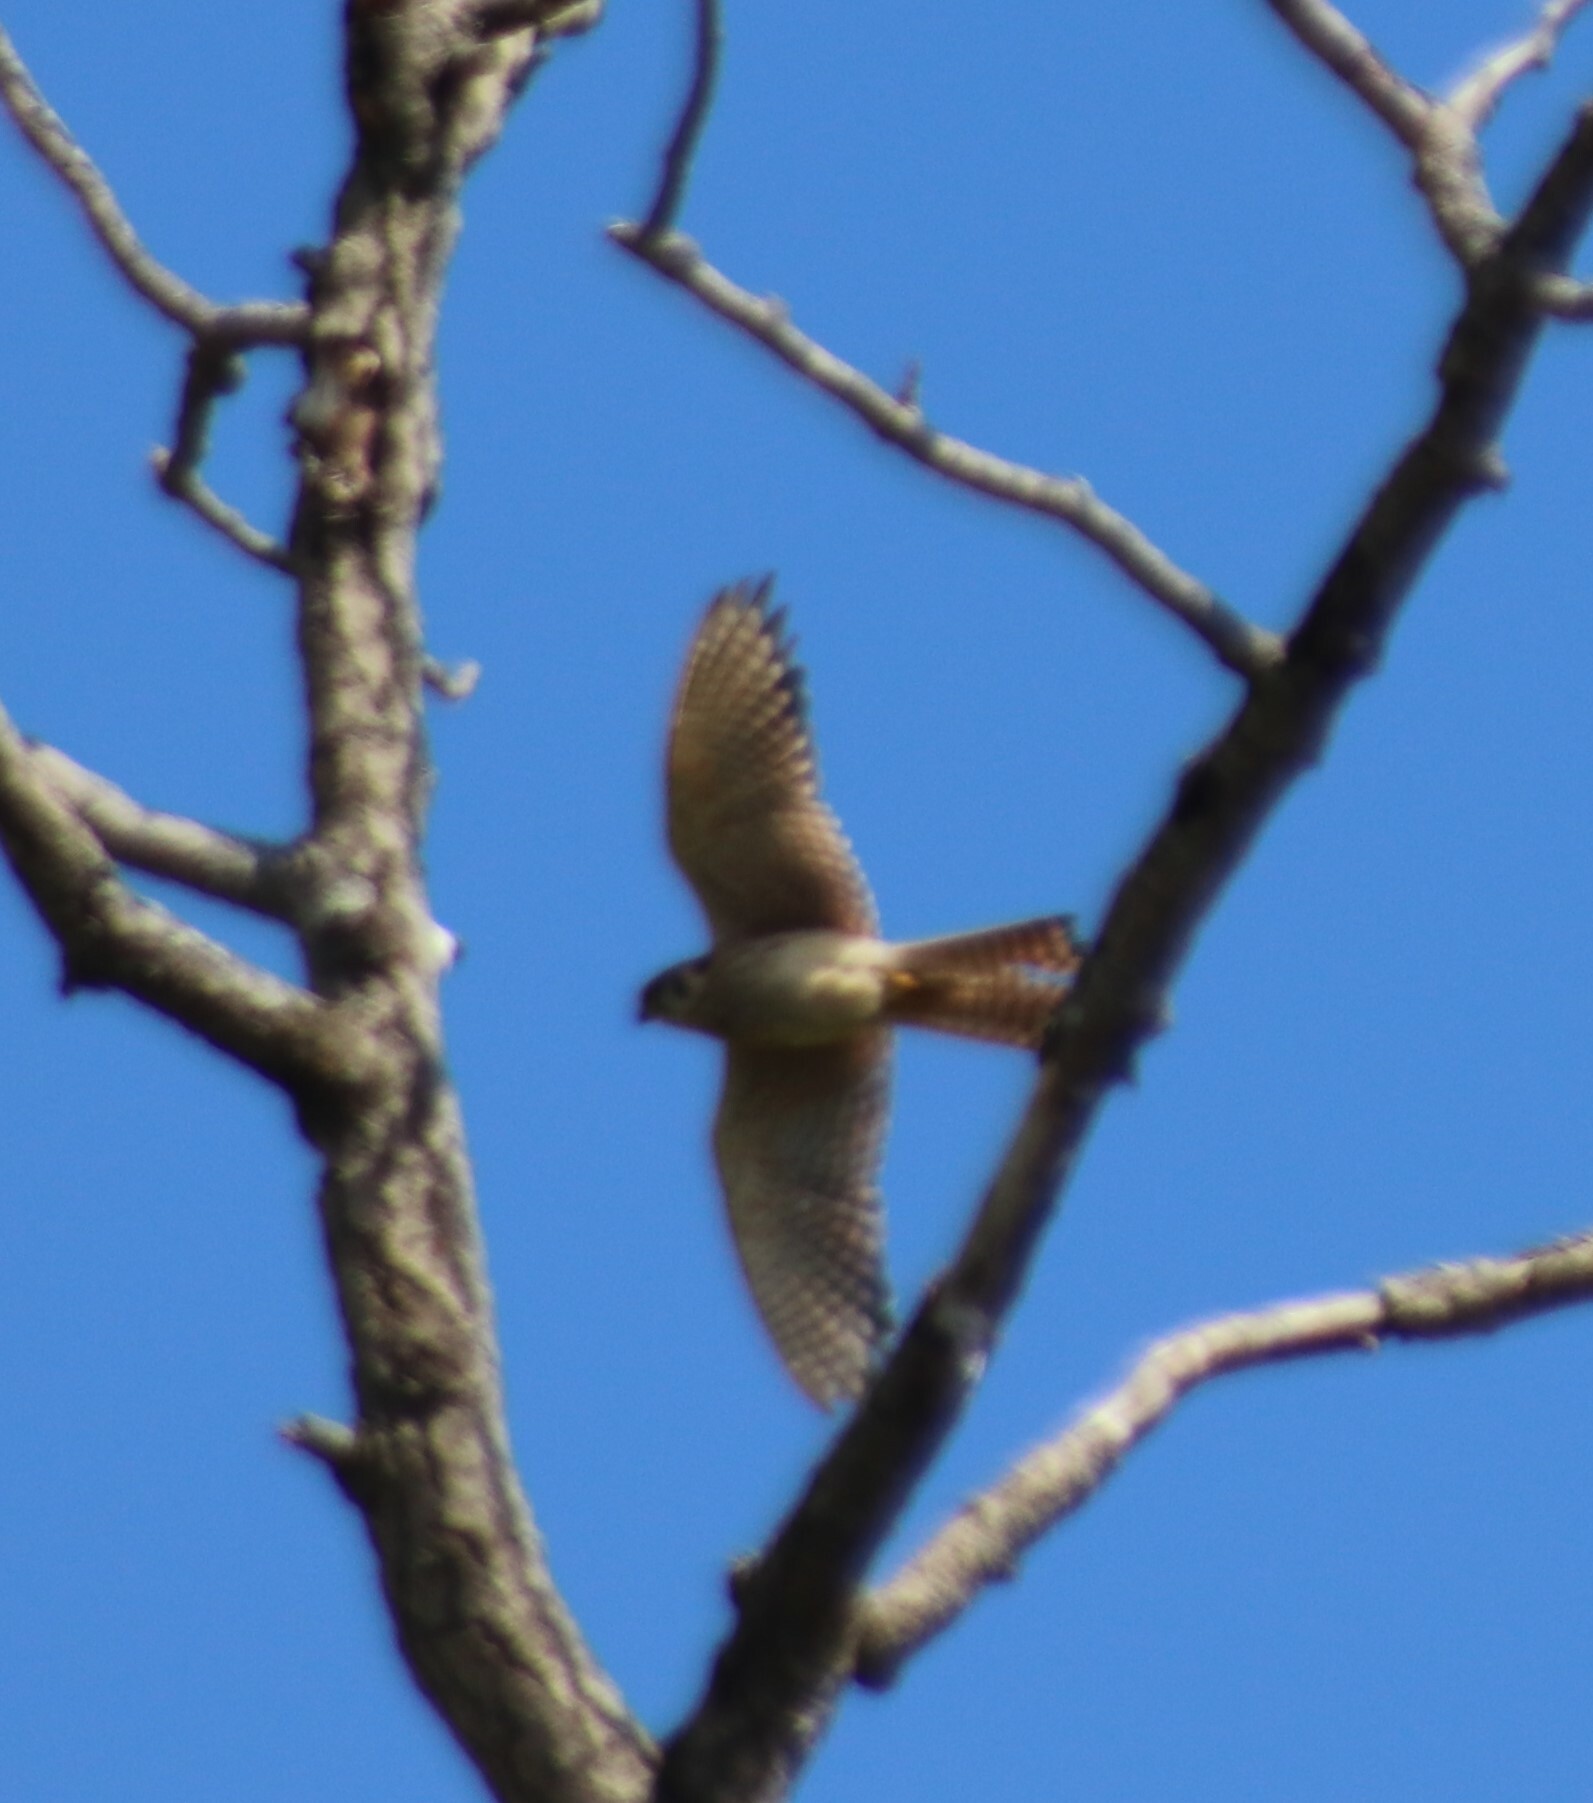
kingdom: Animalia
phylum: Chordata
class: Aves
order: Falconiformes
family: Falconidae
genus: Falco
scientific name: Falco sparverius
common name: American kestrel
